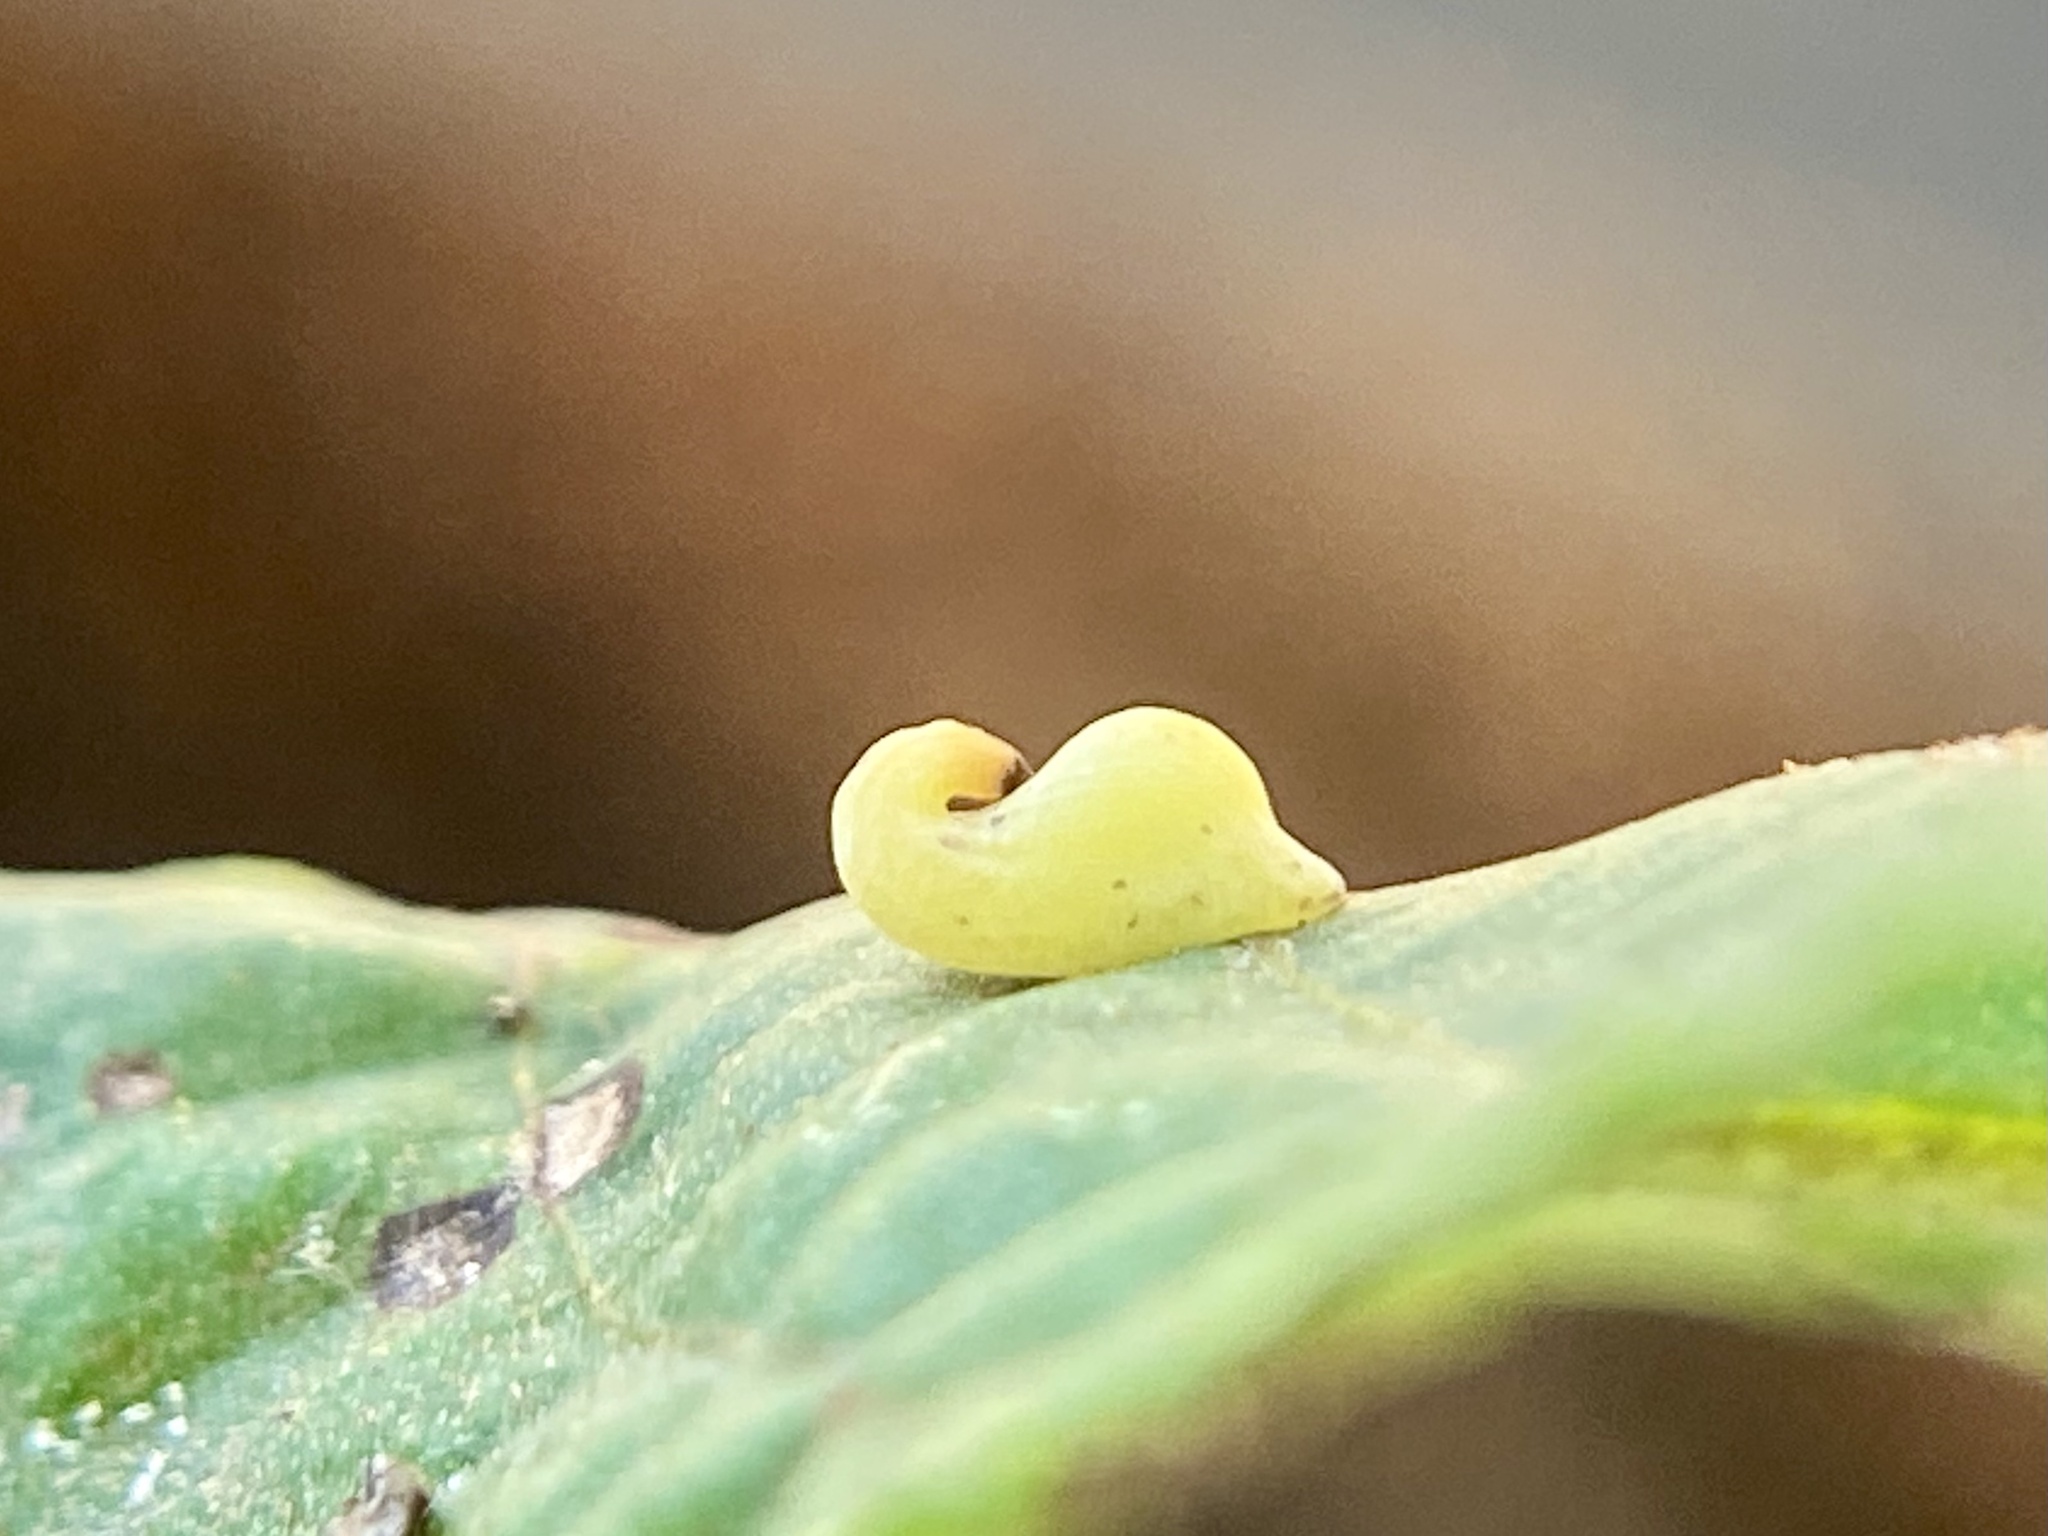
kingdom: Animalia
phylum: Arthropoda
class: Insecta
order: Diptera
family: Cecidomyiidae
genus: Caryomyia
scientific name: Caryomyia recurvata
